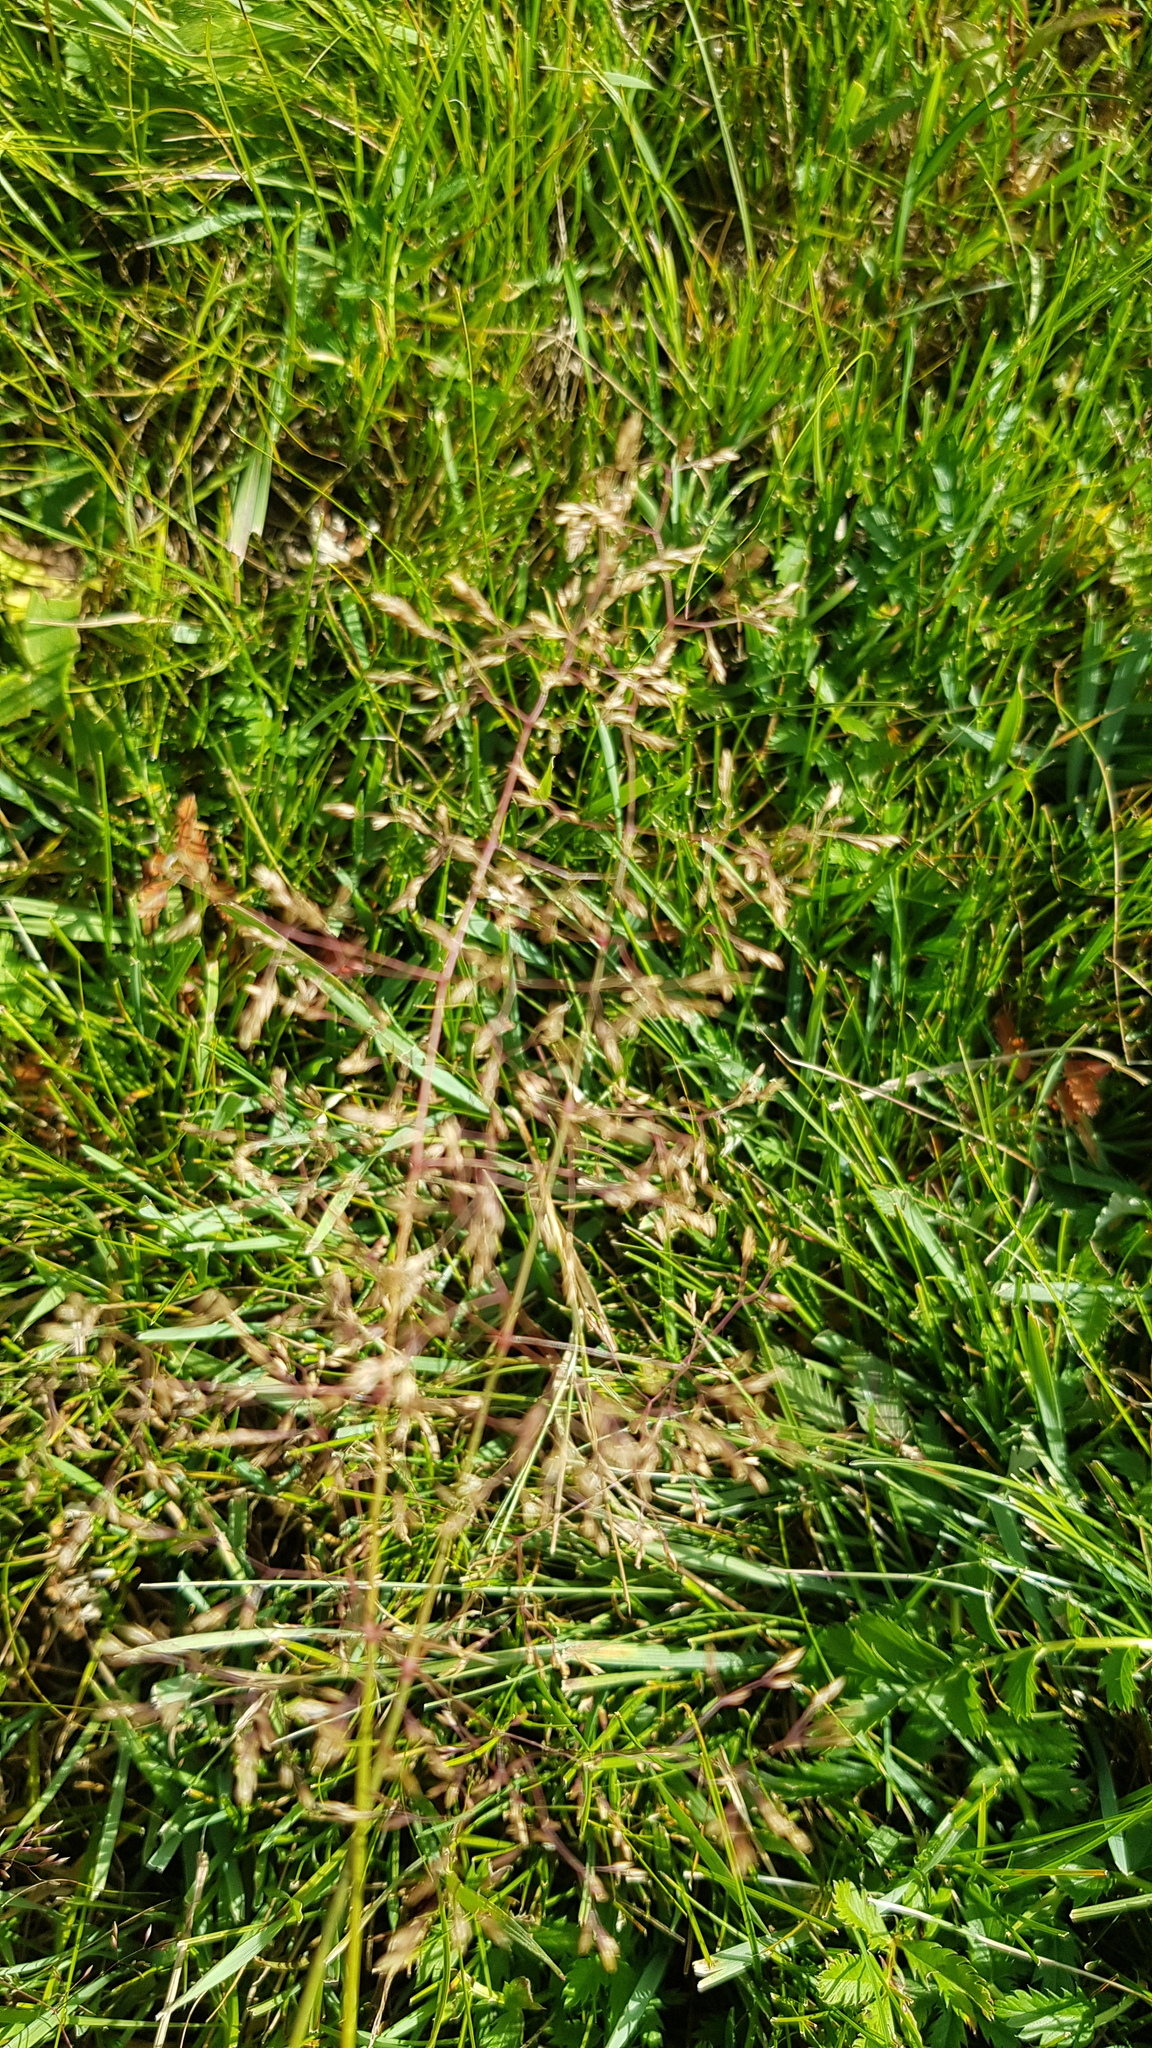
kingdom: Plantae
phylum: Tracheophyta
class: Liliopsida
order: Poales
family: Poaceae
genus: Agrostis
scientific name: Agrostis gigantea
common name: Black bent
